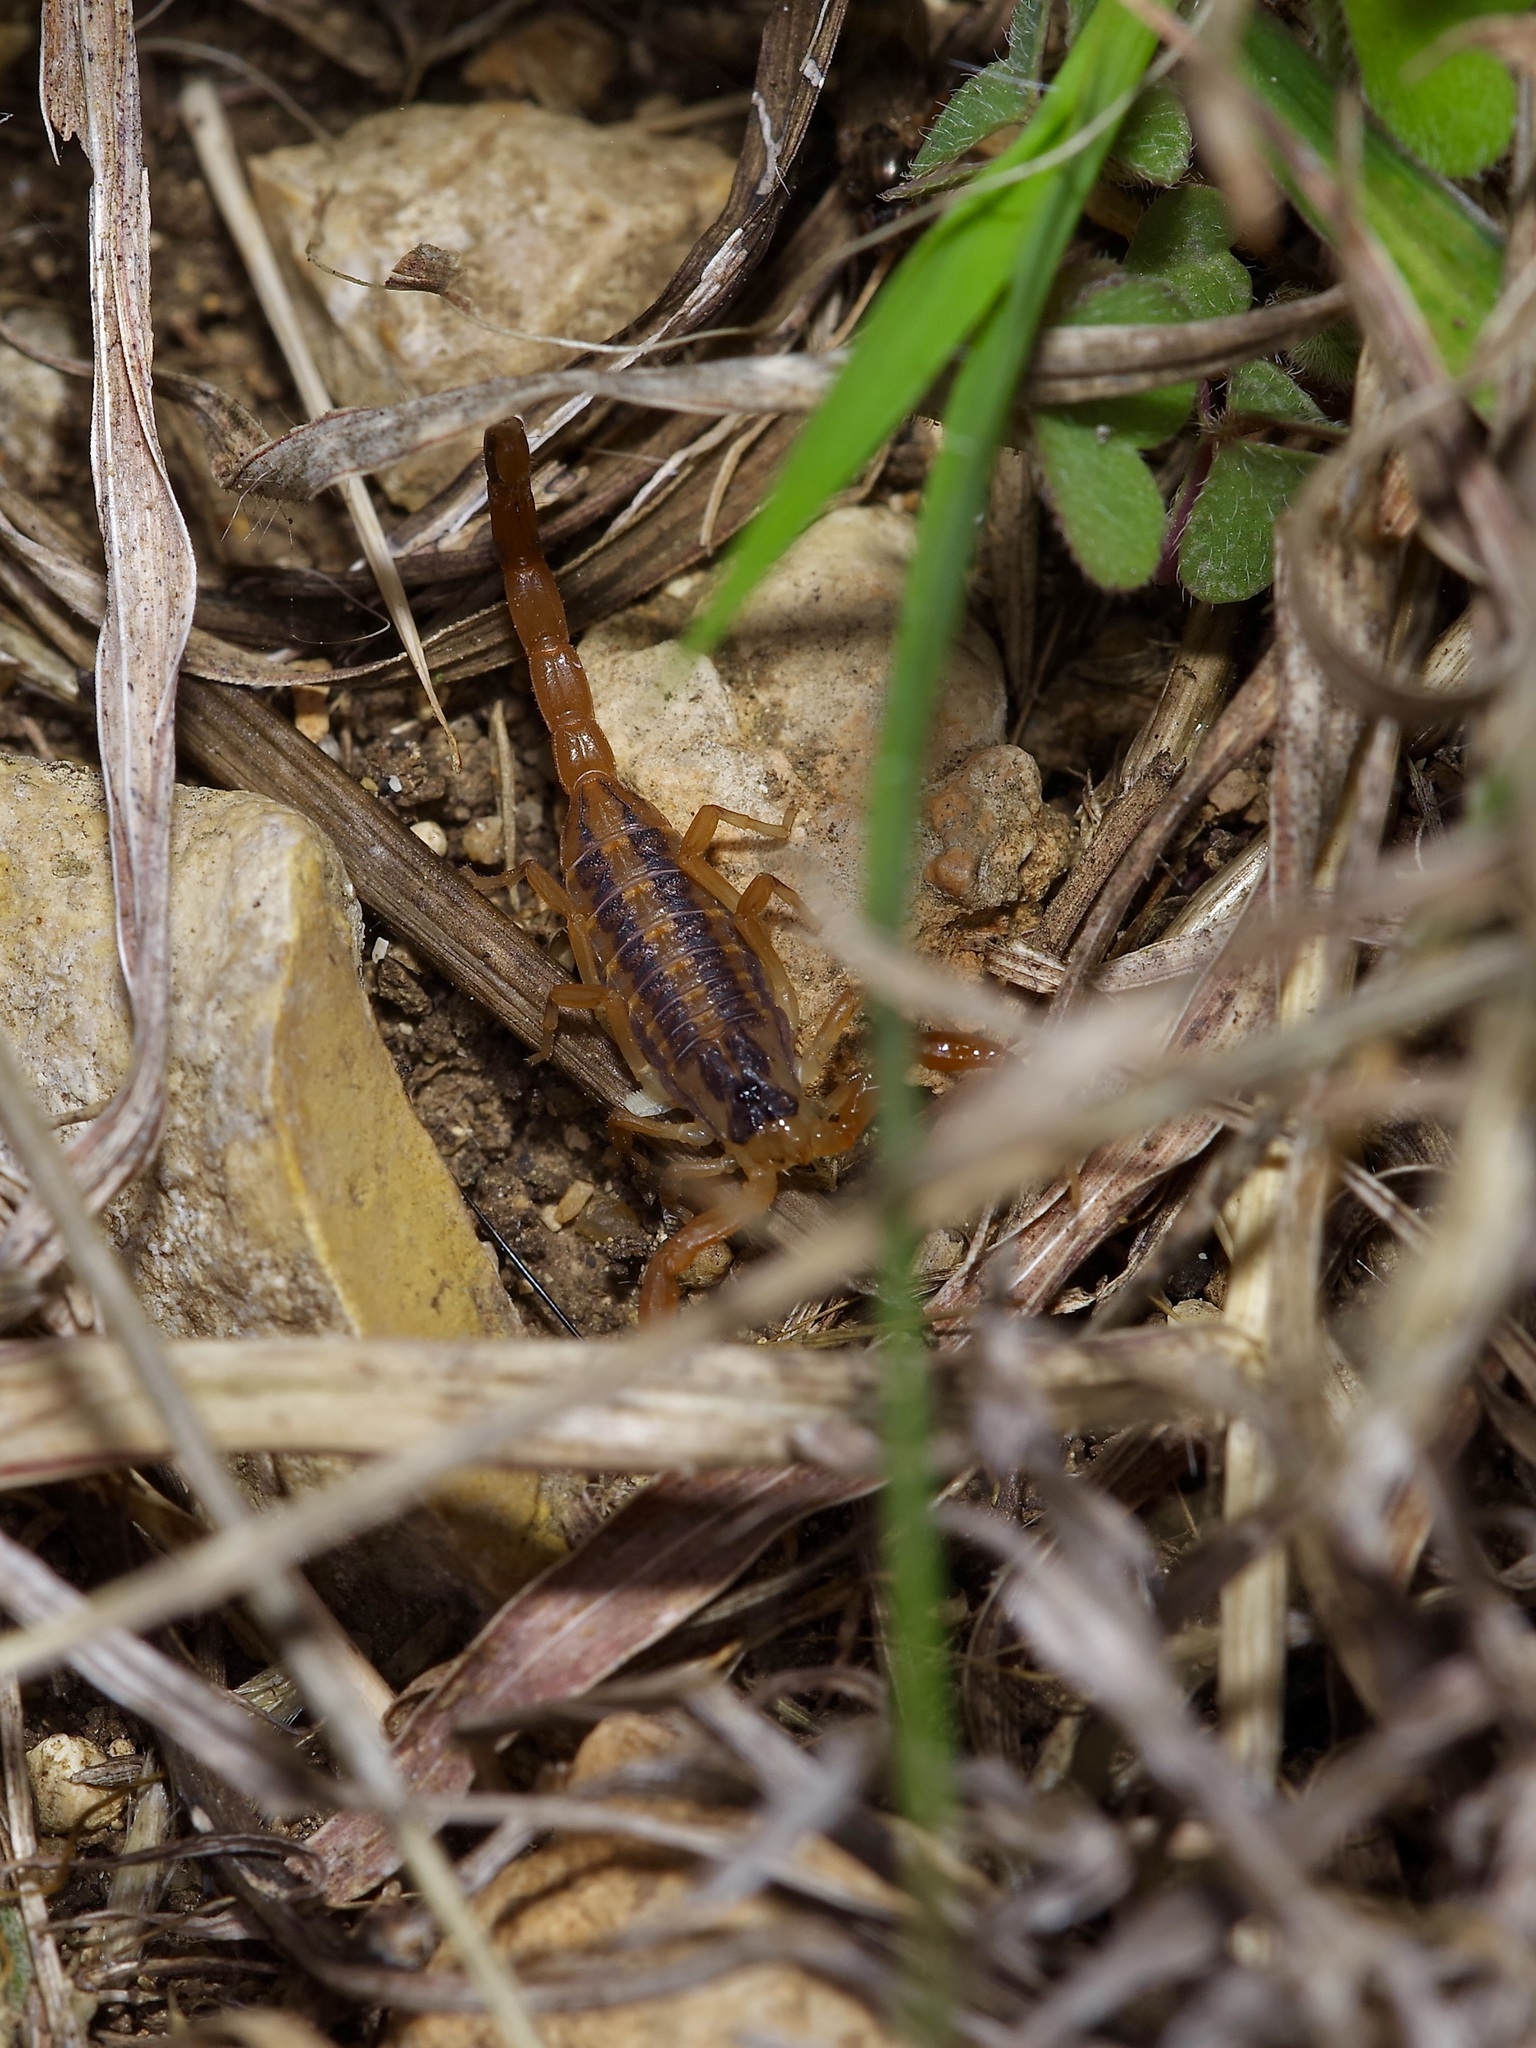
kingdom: Animalia
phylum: Arthropoda
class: Arachnida
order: Scorpiones
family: Buthidae
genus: Centruroides
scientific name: Centruroides vittatus
